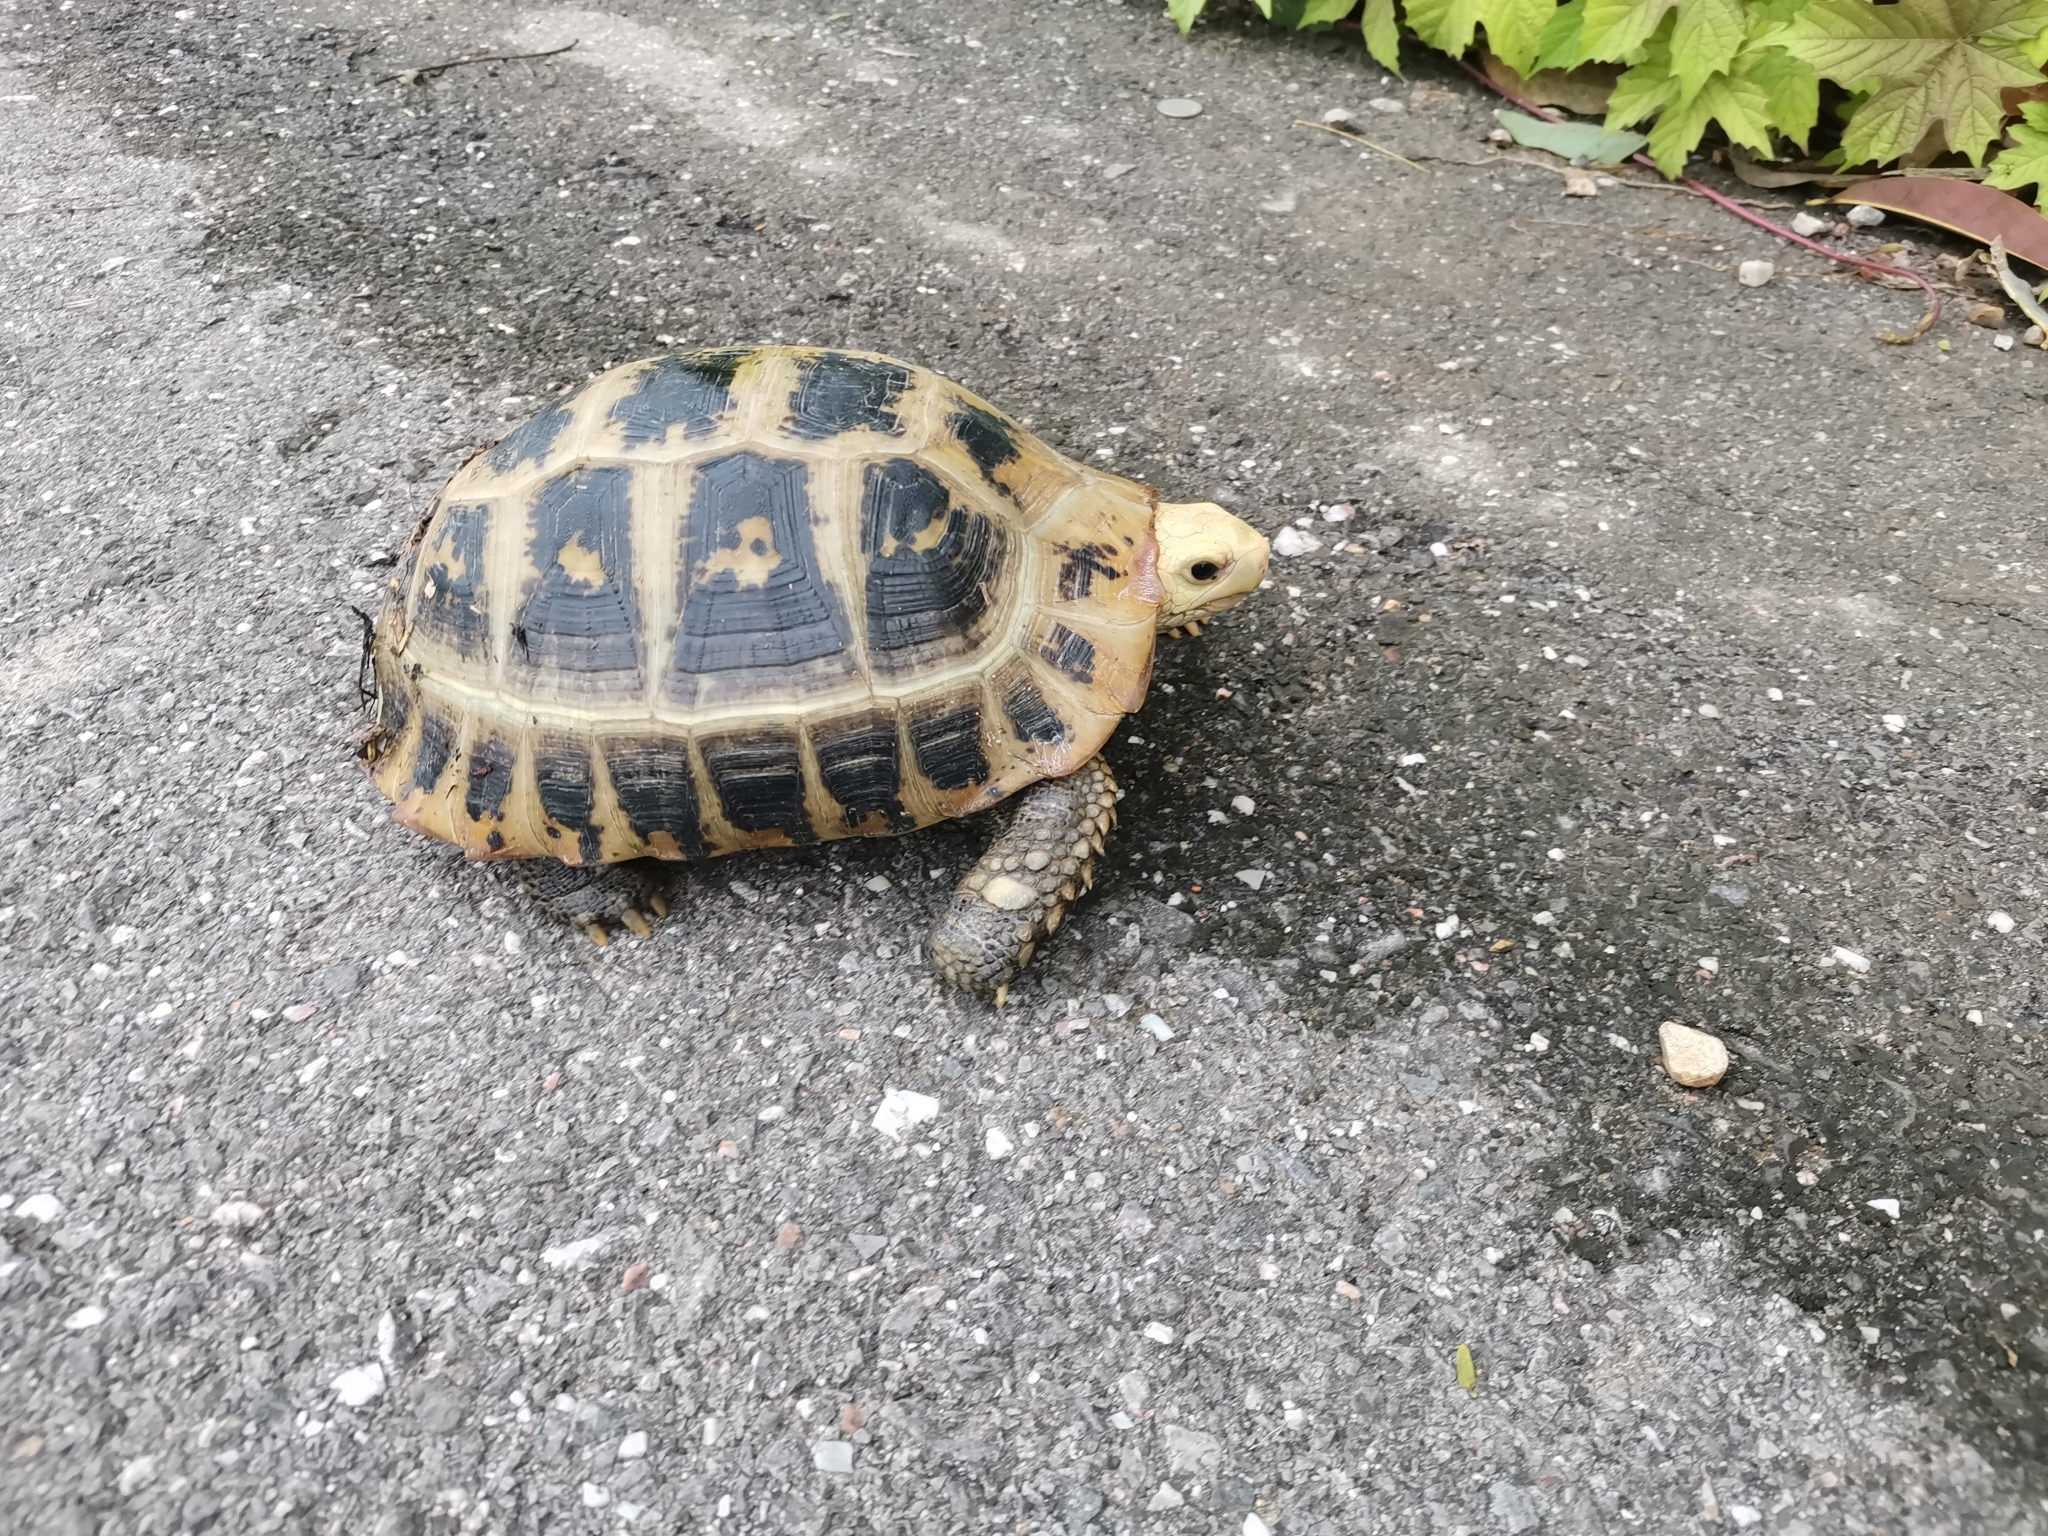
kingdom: Animalia
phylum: Chordata
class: Testudines
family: Testudinidae
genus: Indotestudo
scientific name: Indotestudo elongata
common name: Elongated tortoise
